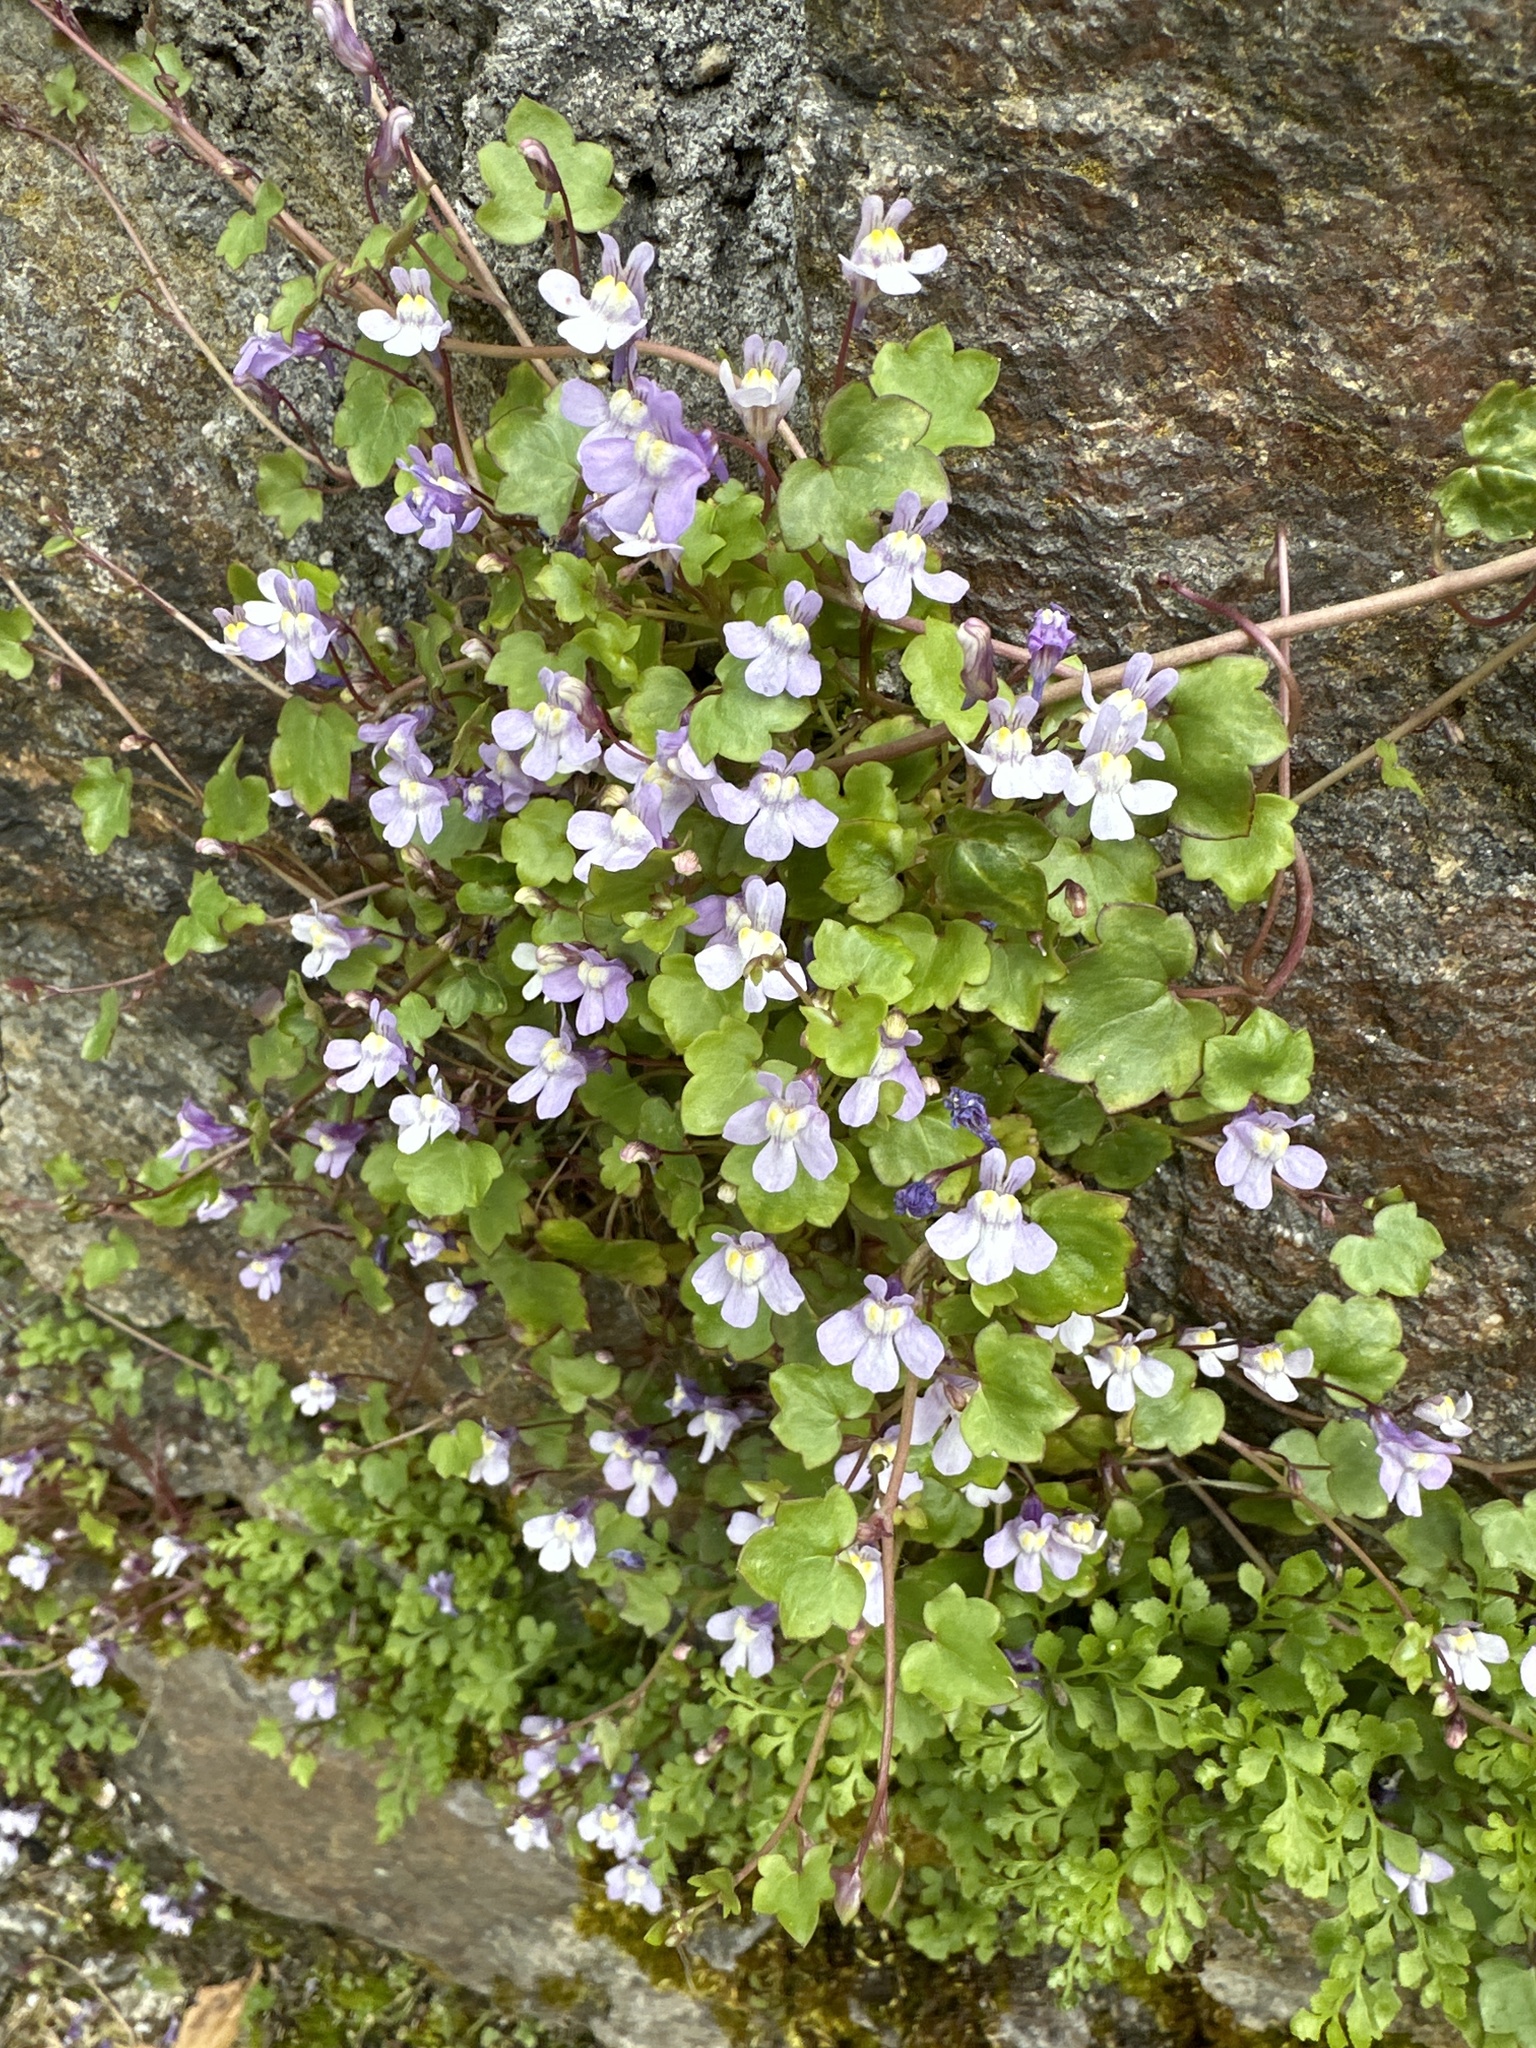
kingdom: Plantae
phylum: Tracheophyta
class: Magnoliopsida
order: Lamiales
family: Plantaginaceae
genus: Cymbalaria
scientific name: Cymbalaria muralis
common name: Ivy-leaved toadflax
